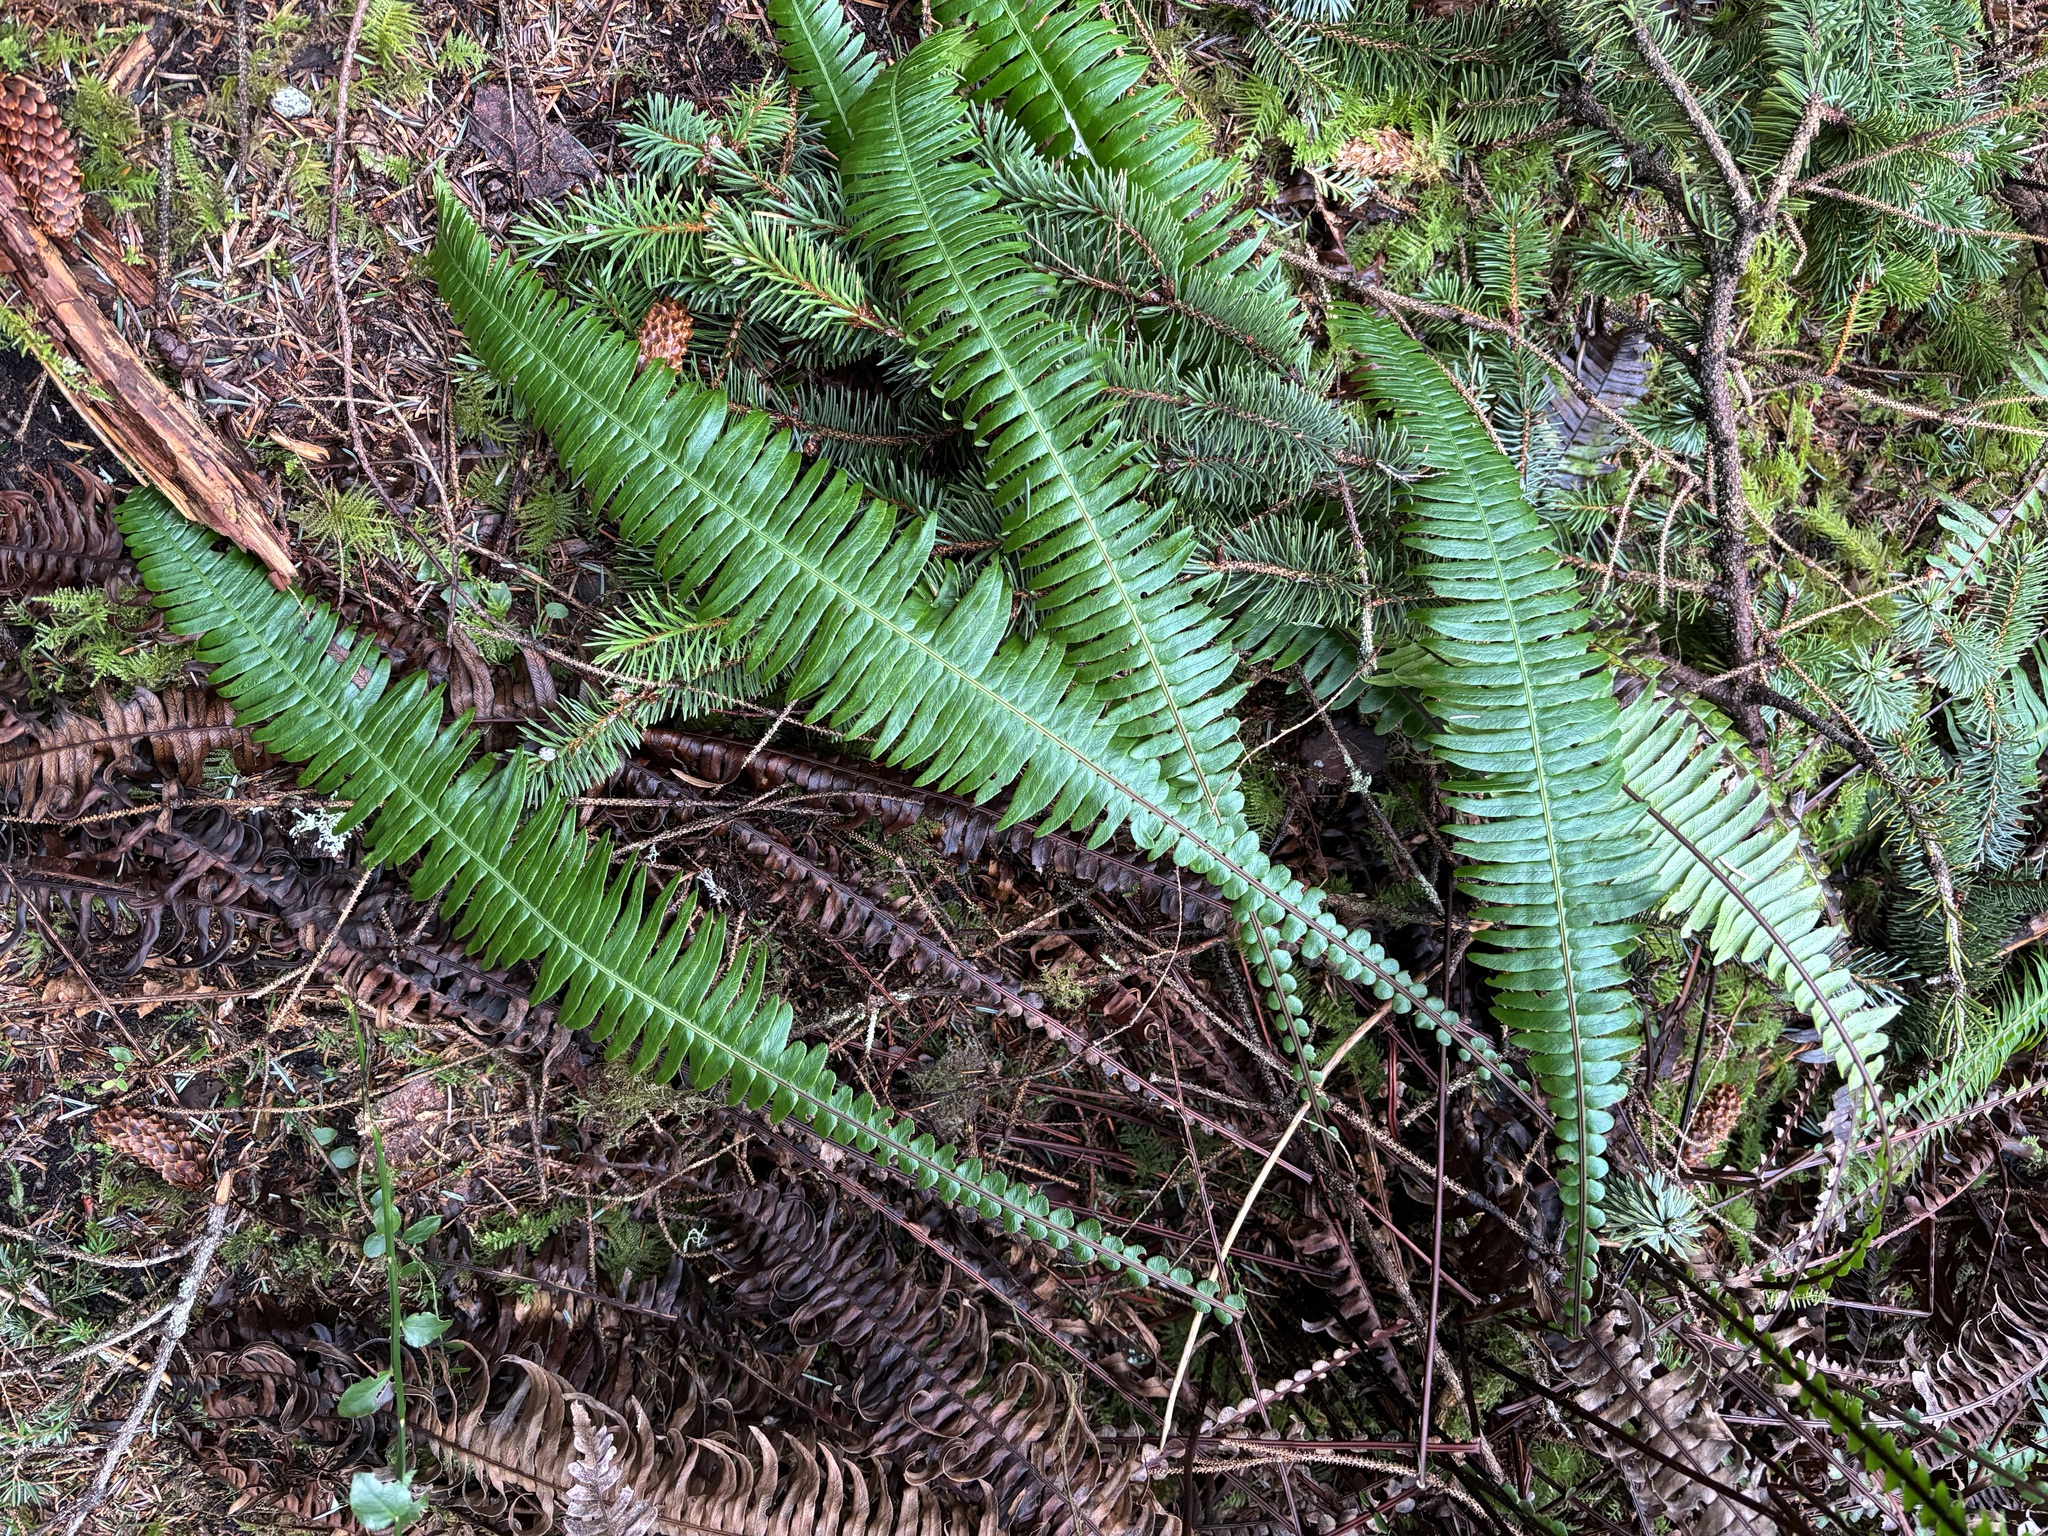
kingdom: Plantae
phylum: Tracheophyta
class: Polypodiopsida
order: Polypodiales
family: Blechnaceae
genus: Struthiopteris
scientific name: Struthiopteris spicant
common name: Deer fern
